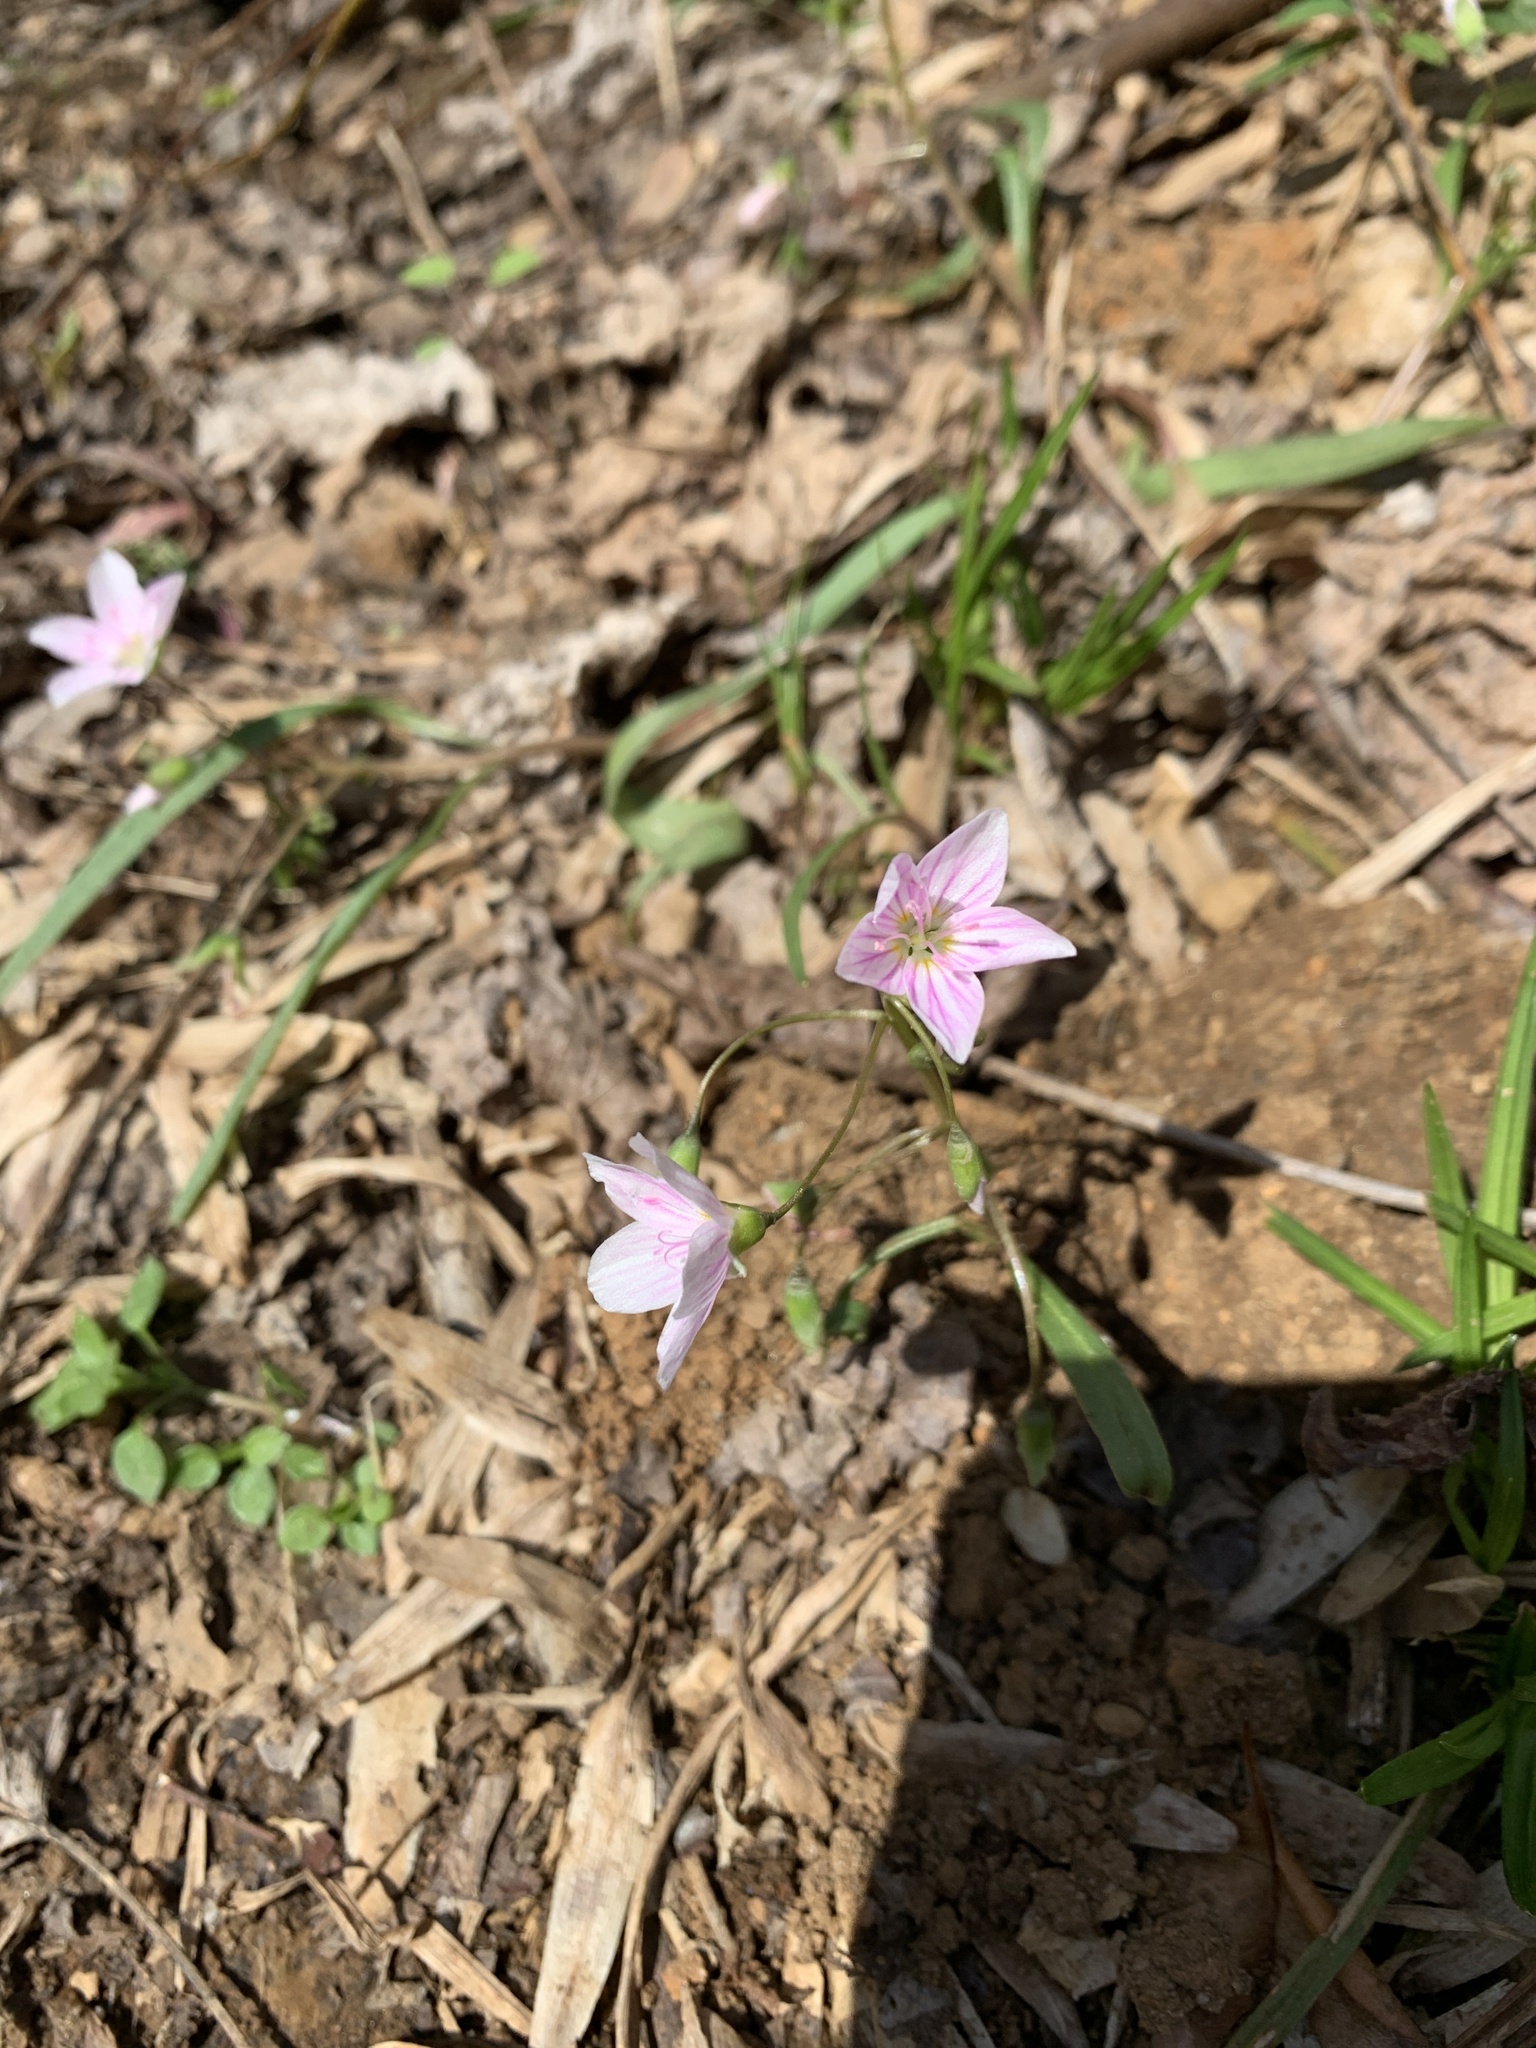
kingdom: Plantae
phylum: Tracheophyta
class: Magnoliopsida
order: Caryophyllales
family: Montiaceae
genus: Claytonia
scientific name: Claytonia virginica
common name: Virginia springbeauty
